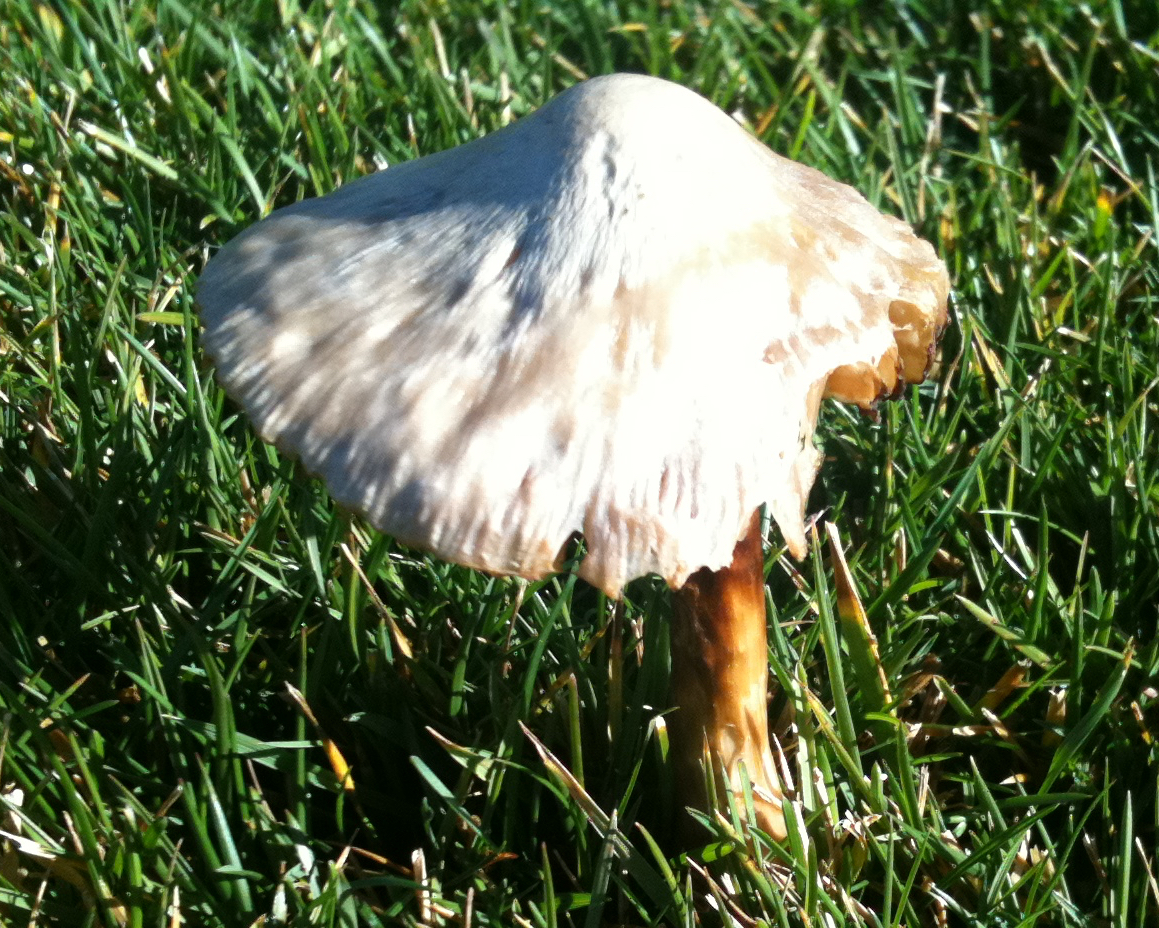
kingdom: Fungi
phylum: Basidiomycota
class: Agaricomycetes
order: Agaricales
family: Pluteaceae
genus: Volvopluteus
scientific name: Volvopluteus gloiocephalus
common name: Stubble rosegill
